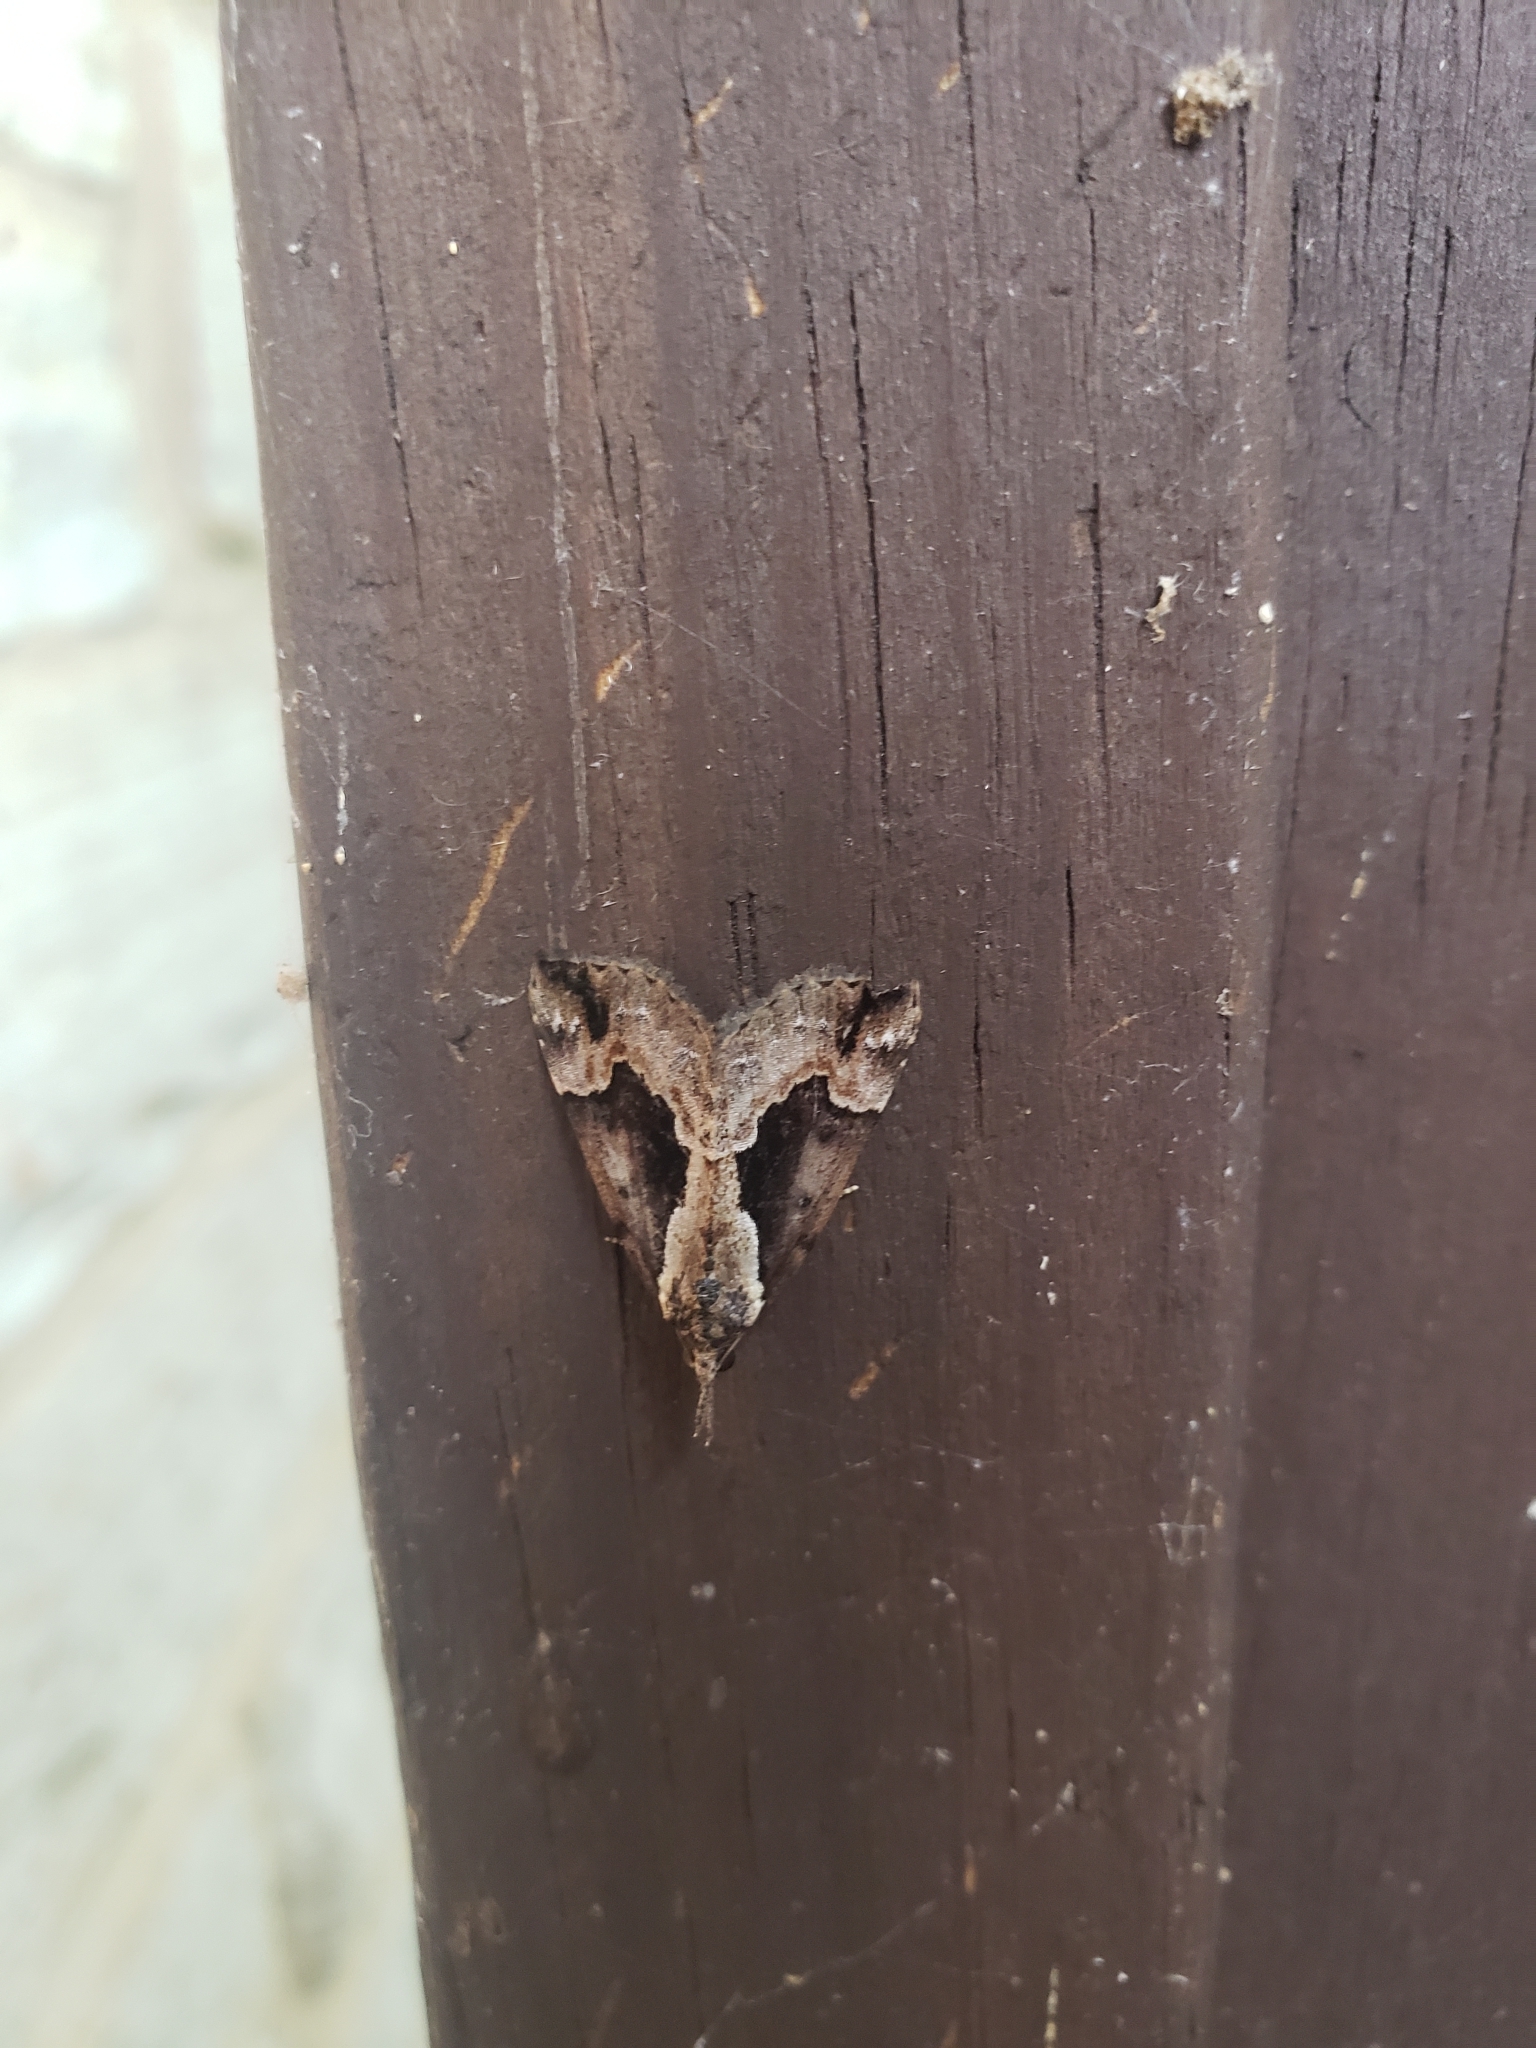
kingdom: Animalia
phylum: Arthropoda
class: Insecta
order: Lepidoptera
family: Erebidae
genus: Hypena
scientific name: Hypena baltimoralis
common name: Baltimore snout
